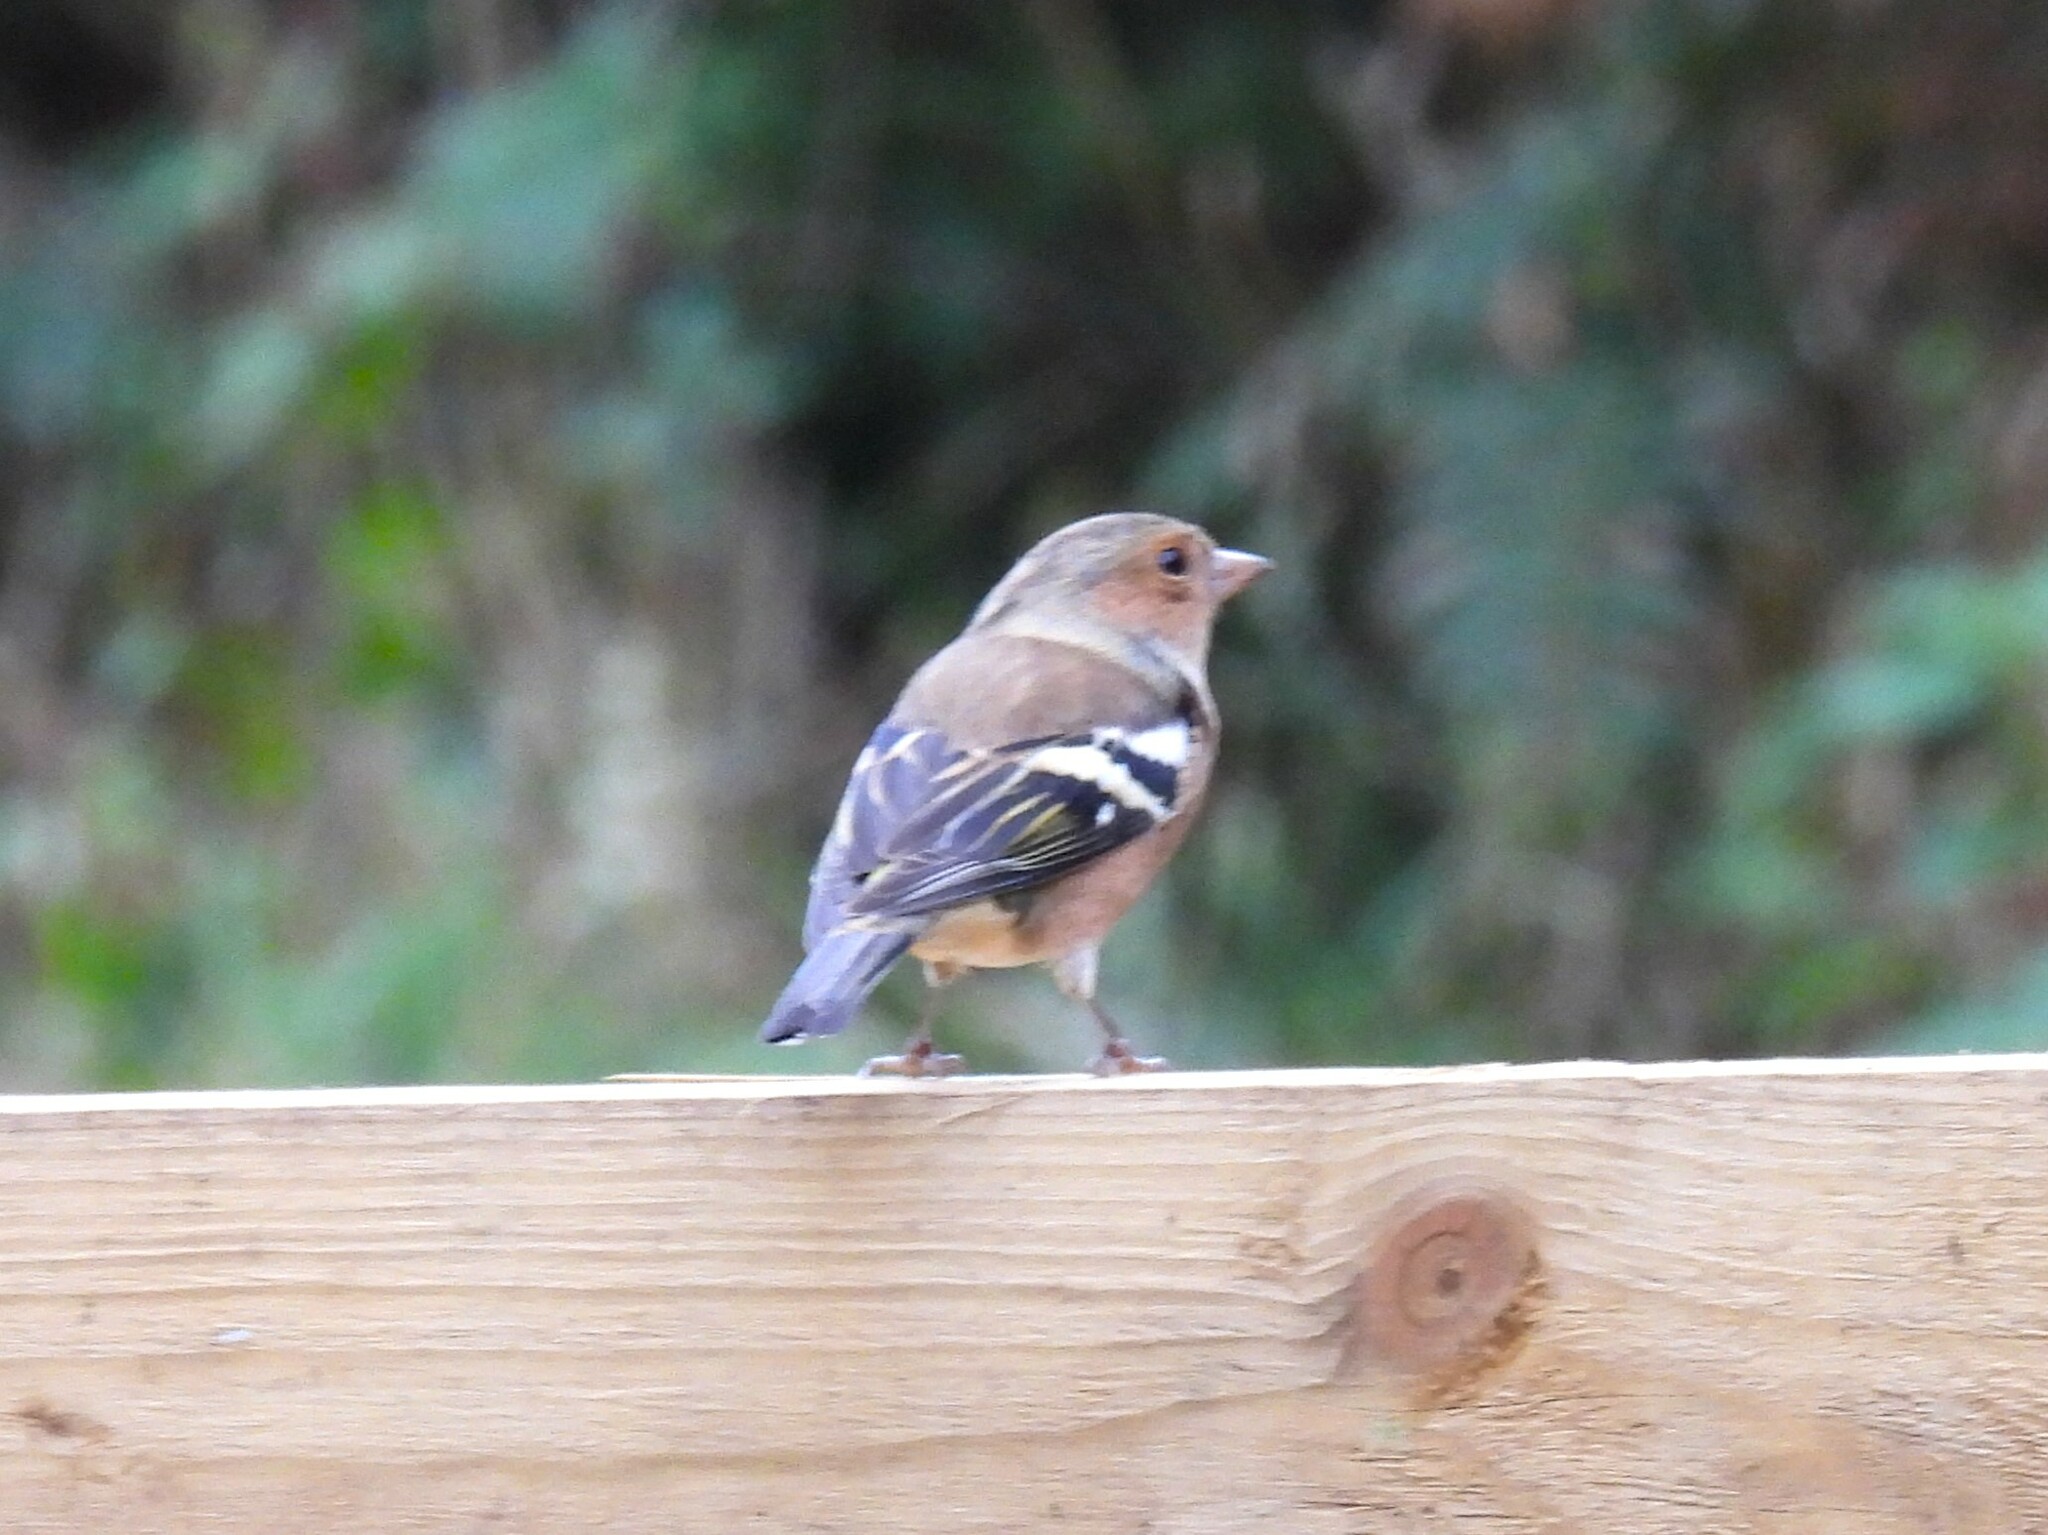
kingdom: Animalia
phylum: Chordata
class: Aves
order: Passeriformes
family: Fringillidae
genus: Fringilla
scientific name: Fringilla coelebs
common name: Common chaffinch
